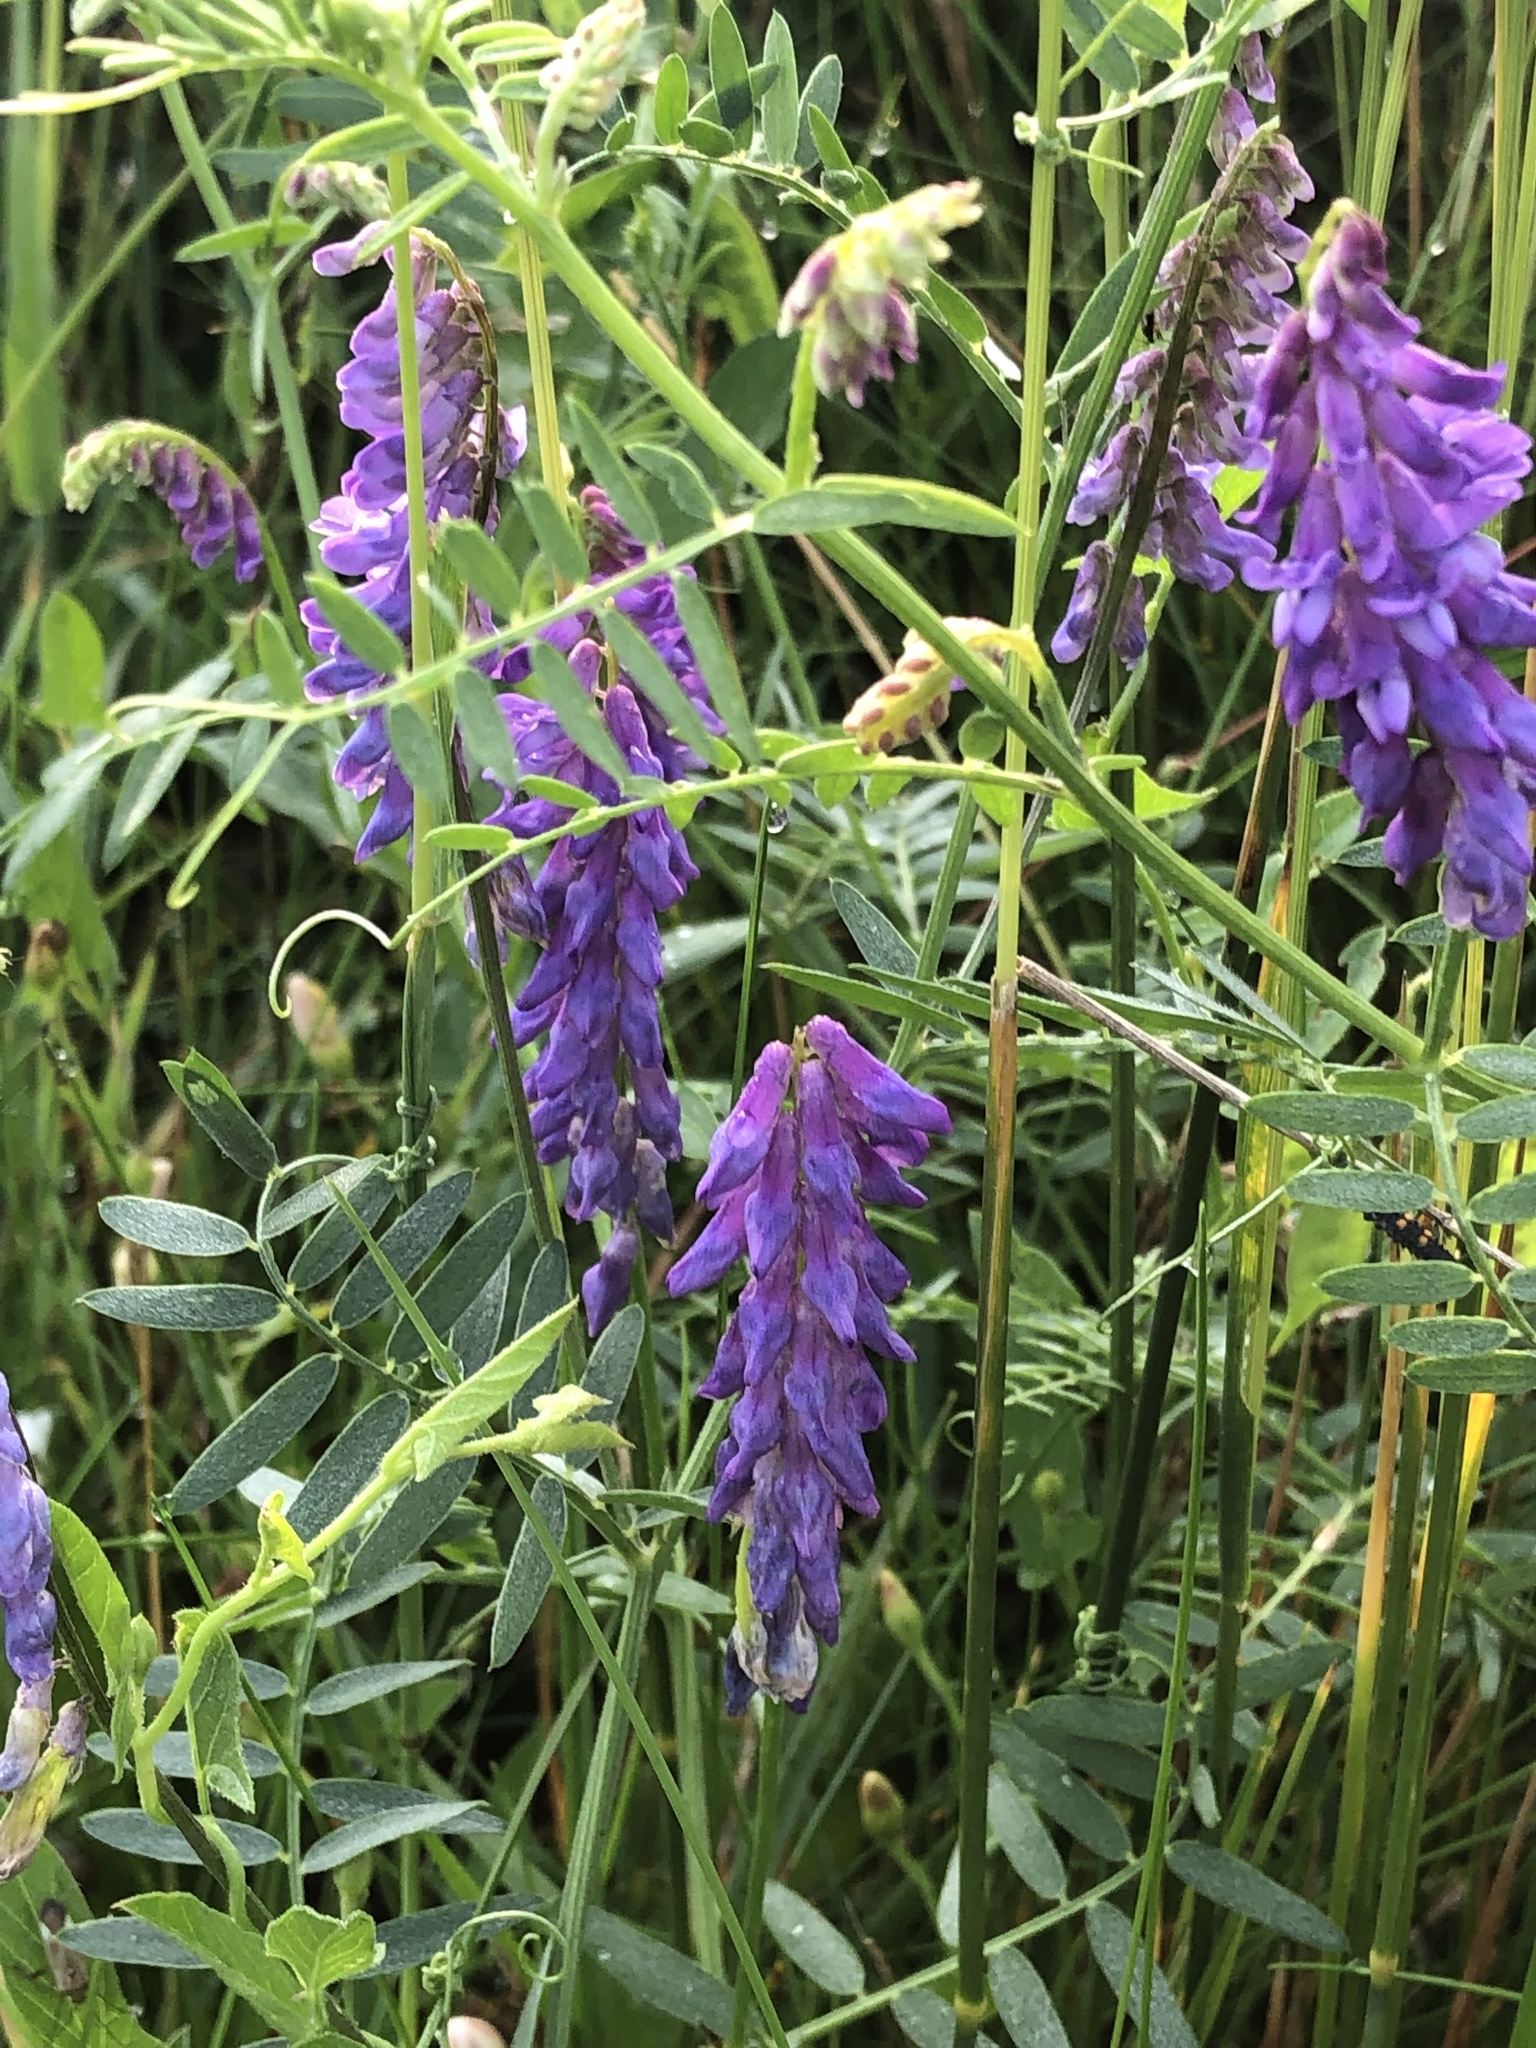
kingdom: Plantae
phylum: Tracheophyta
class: Magnoliopsida
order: Fabales
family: Fabaceae
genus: Vicia
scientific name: Vicia cracca
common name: Bird vetch
